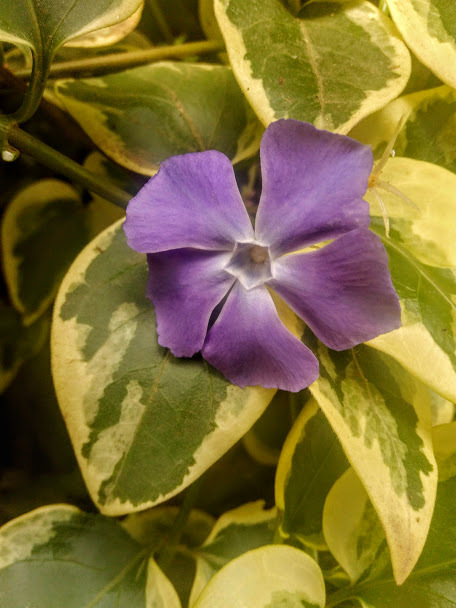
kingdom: Plantae
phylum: Tracheophyta
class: Magnoliopsida
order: Gentianales
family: Apocynaceae
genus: Vinca
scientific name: Vinca major
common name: Greater periwinkle
